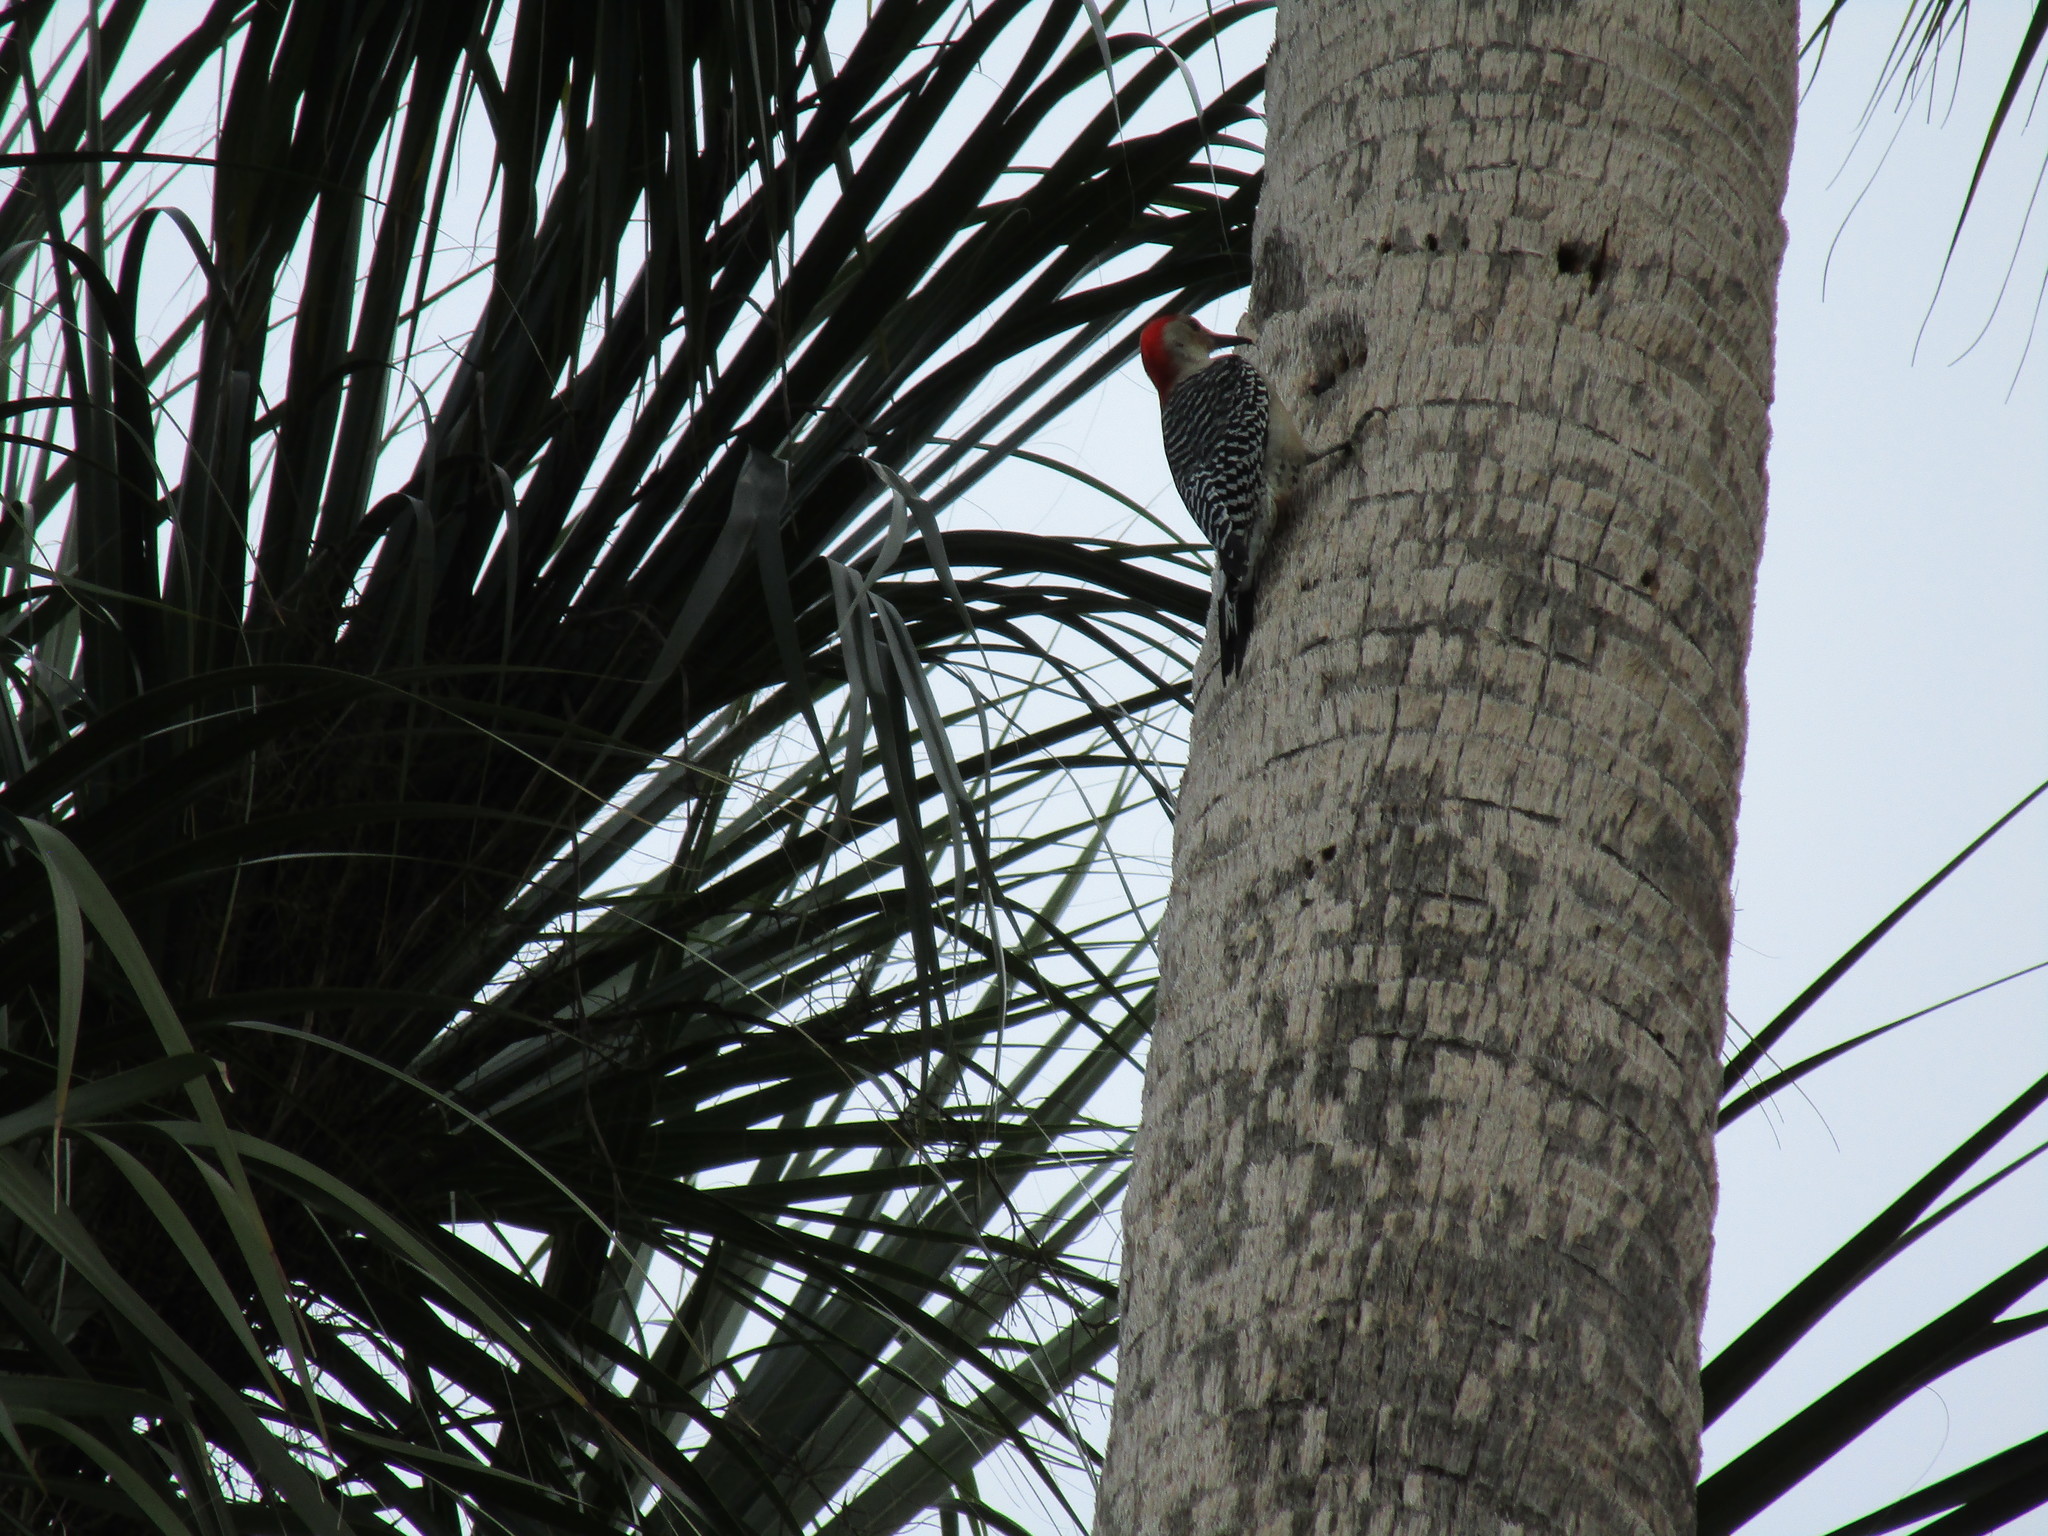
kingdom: Animalia
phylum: Chordata
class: Aves
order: Piciformes
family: Picidae
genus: Melanerpes
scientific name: Melanerpes carolinus
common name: Red-bellied woodpecker
